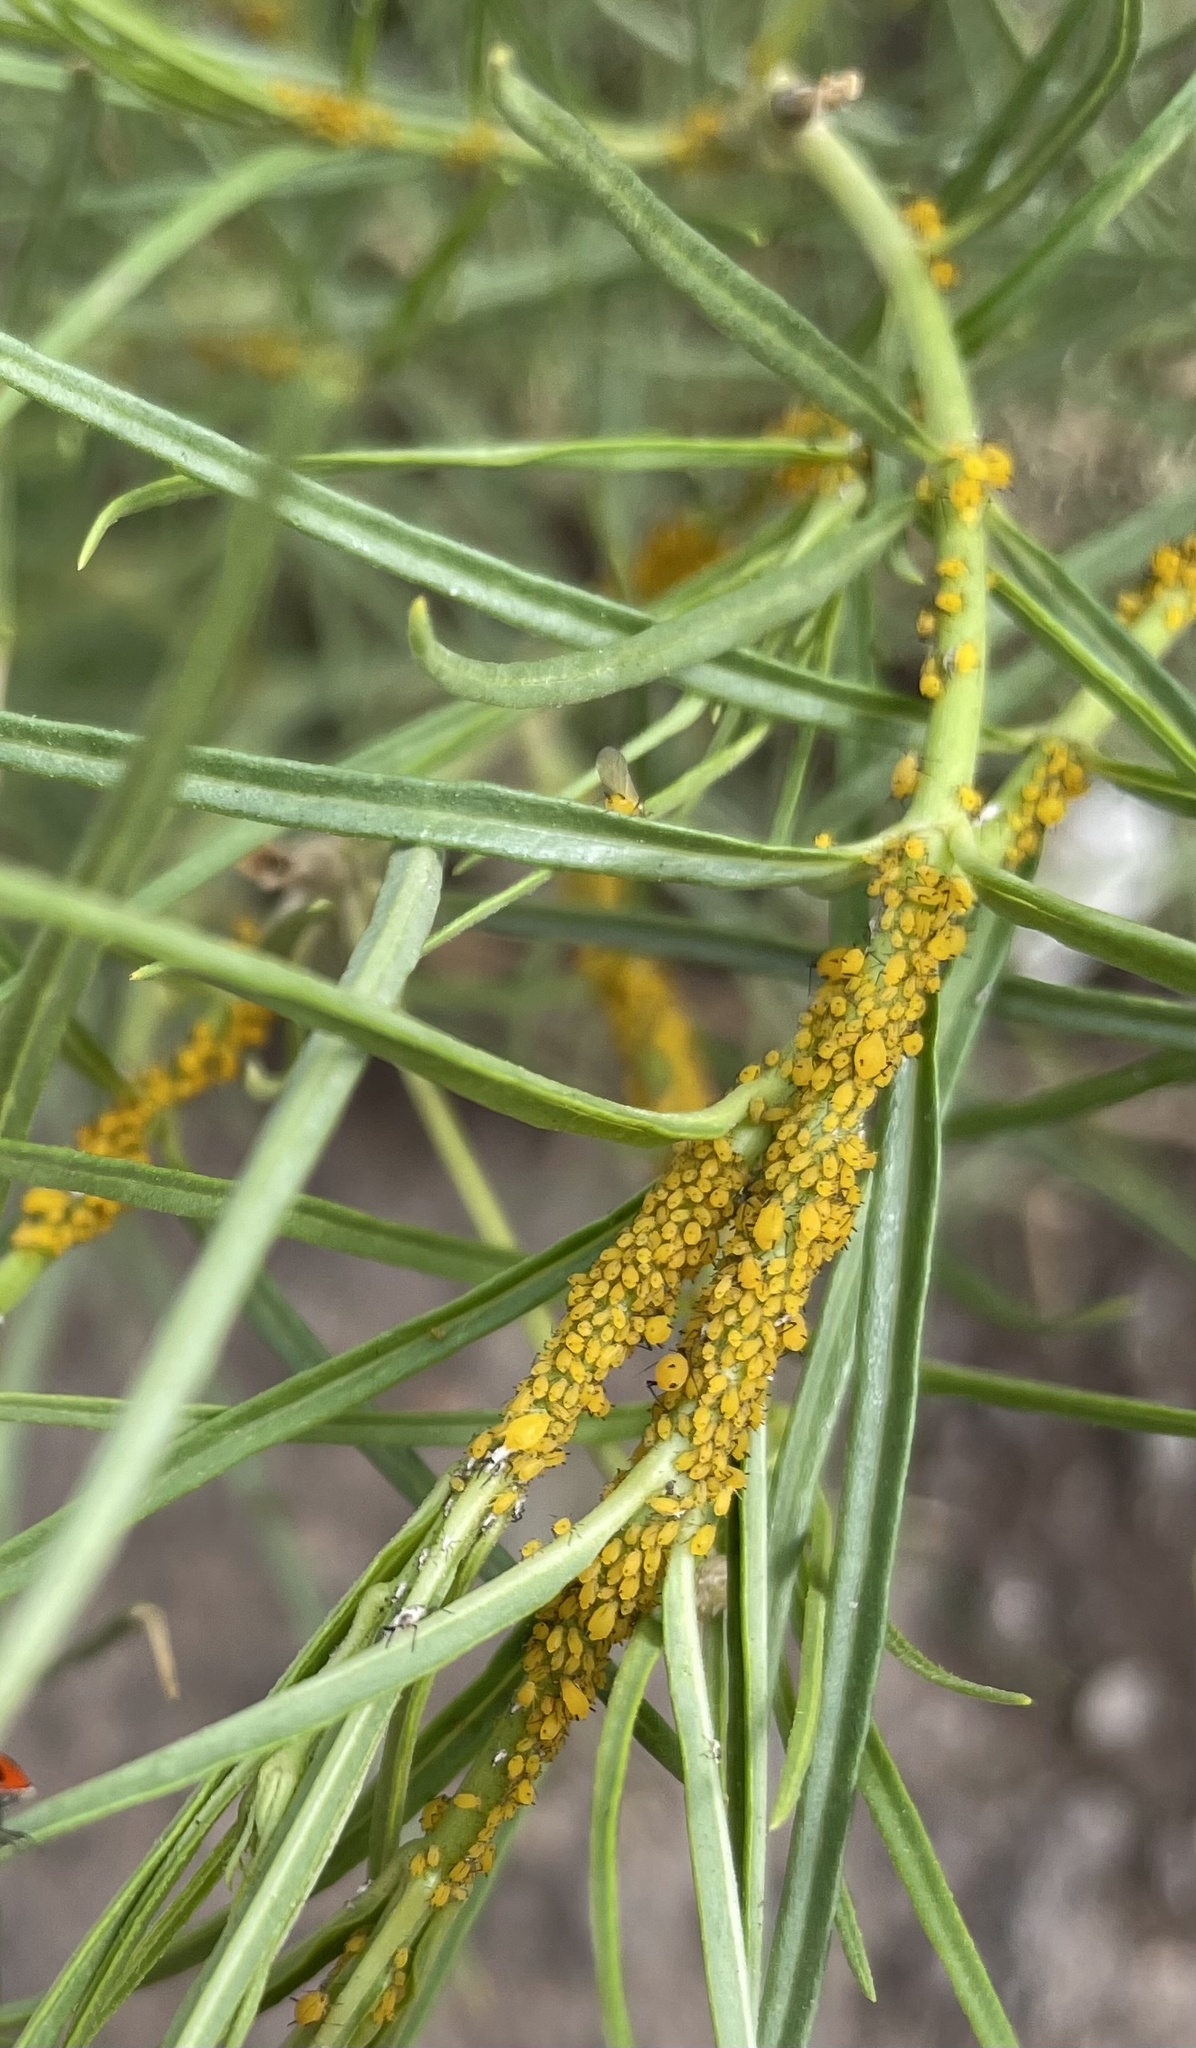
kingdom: Animalia
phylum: Arthropoda
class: Insecta
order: Hemiptera
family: Aphididae
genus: Aphis
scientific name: Aphis nerii
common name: Oleander aphid
